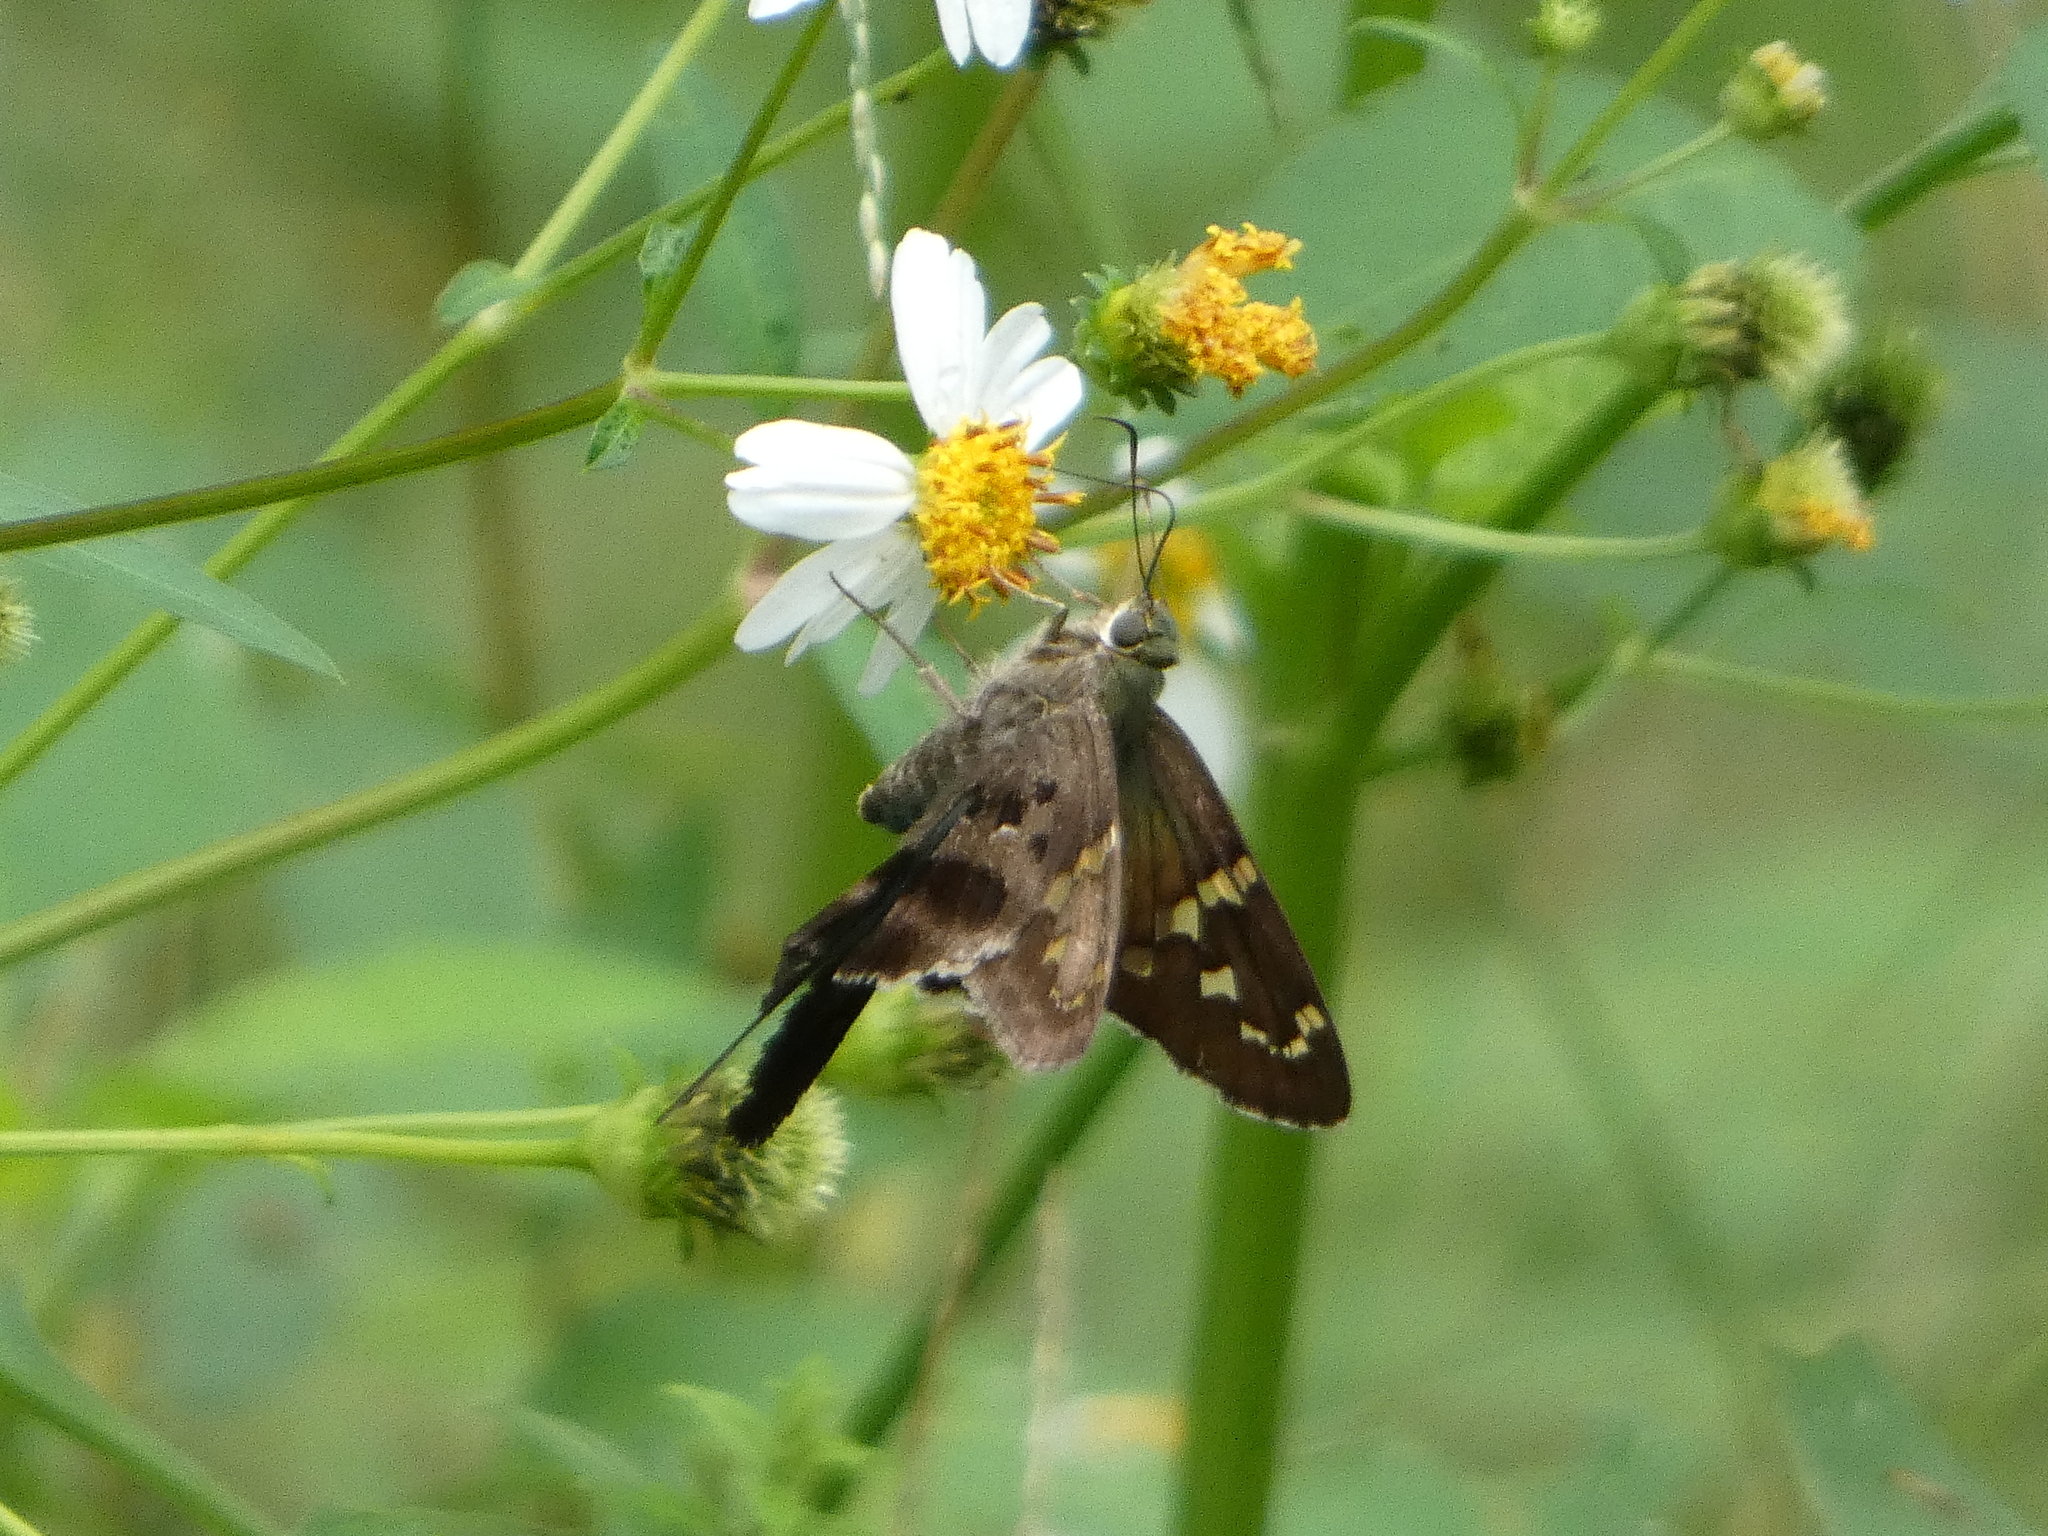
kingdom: Animalia
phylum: Arthropoda
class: Insecta
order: Lepidoptera
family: Hesperiidae
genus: Urbanus
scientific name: Urbanus proteus
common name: Long-tailed skipper
